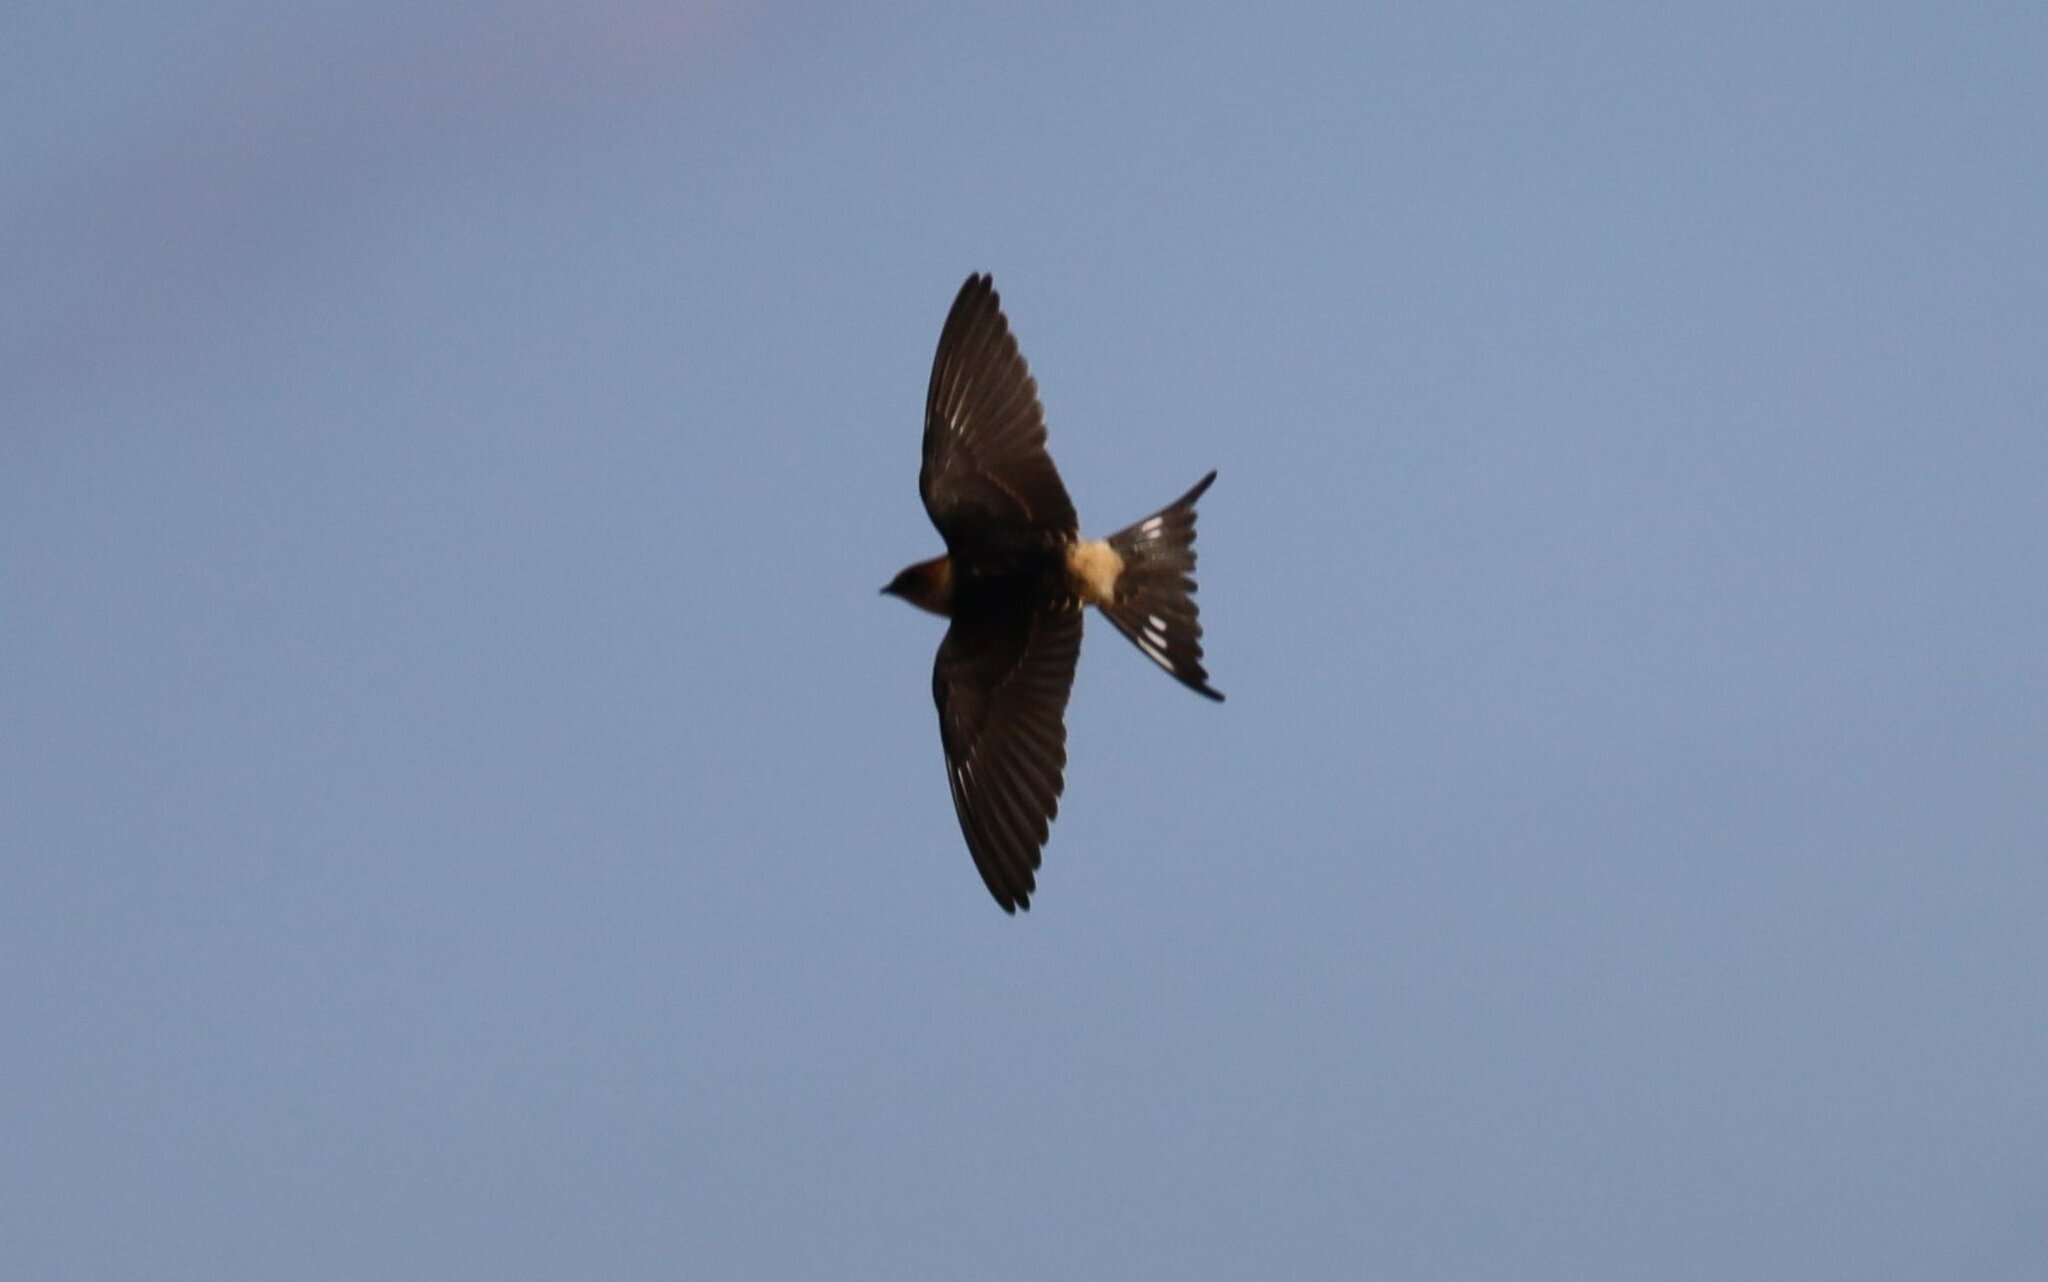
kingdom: Animalia
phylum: Chordata
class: Aves
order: Passeriformes
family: Hirundinidae
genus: Cecropis
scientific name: Cecropis cucullata
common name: Greater striped-swallow
